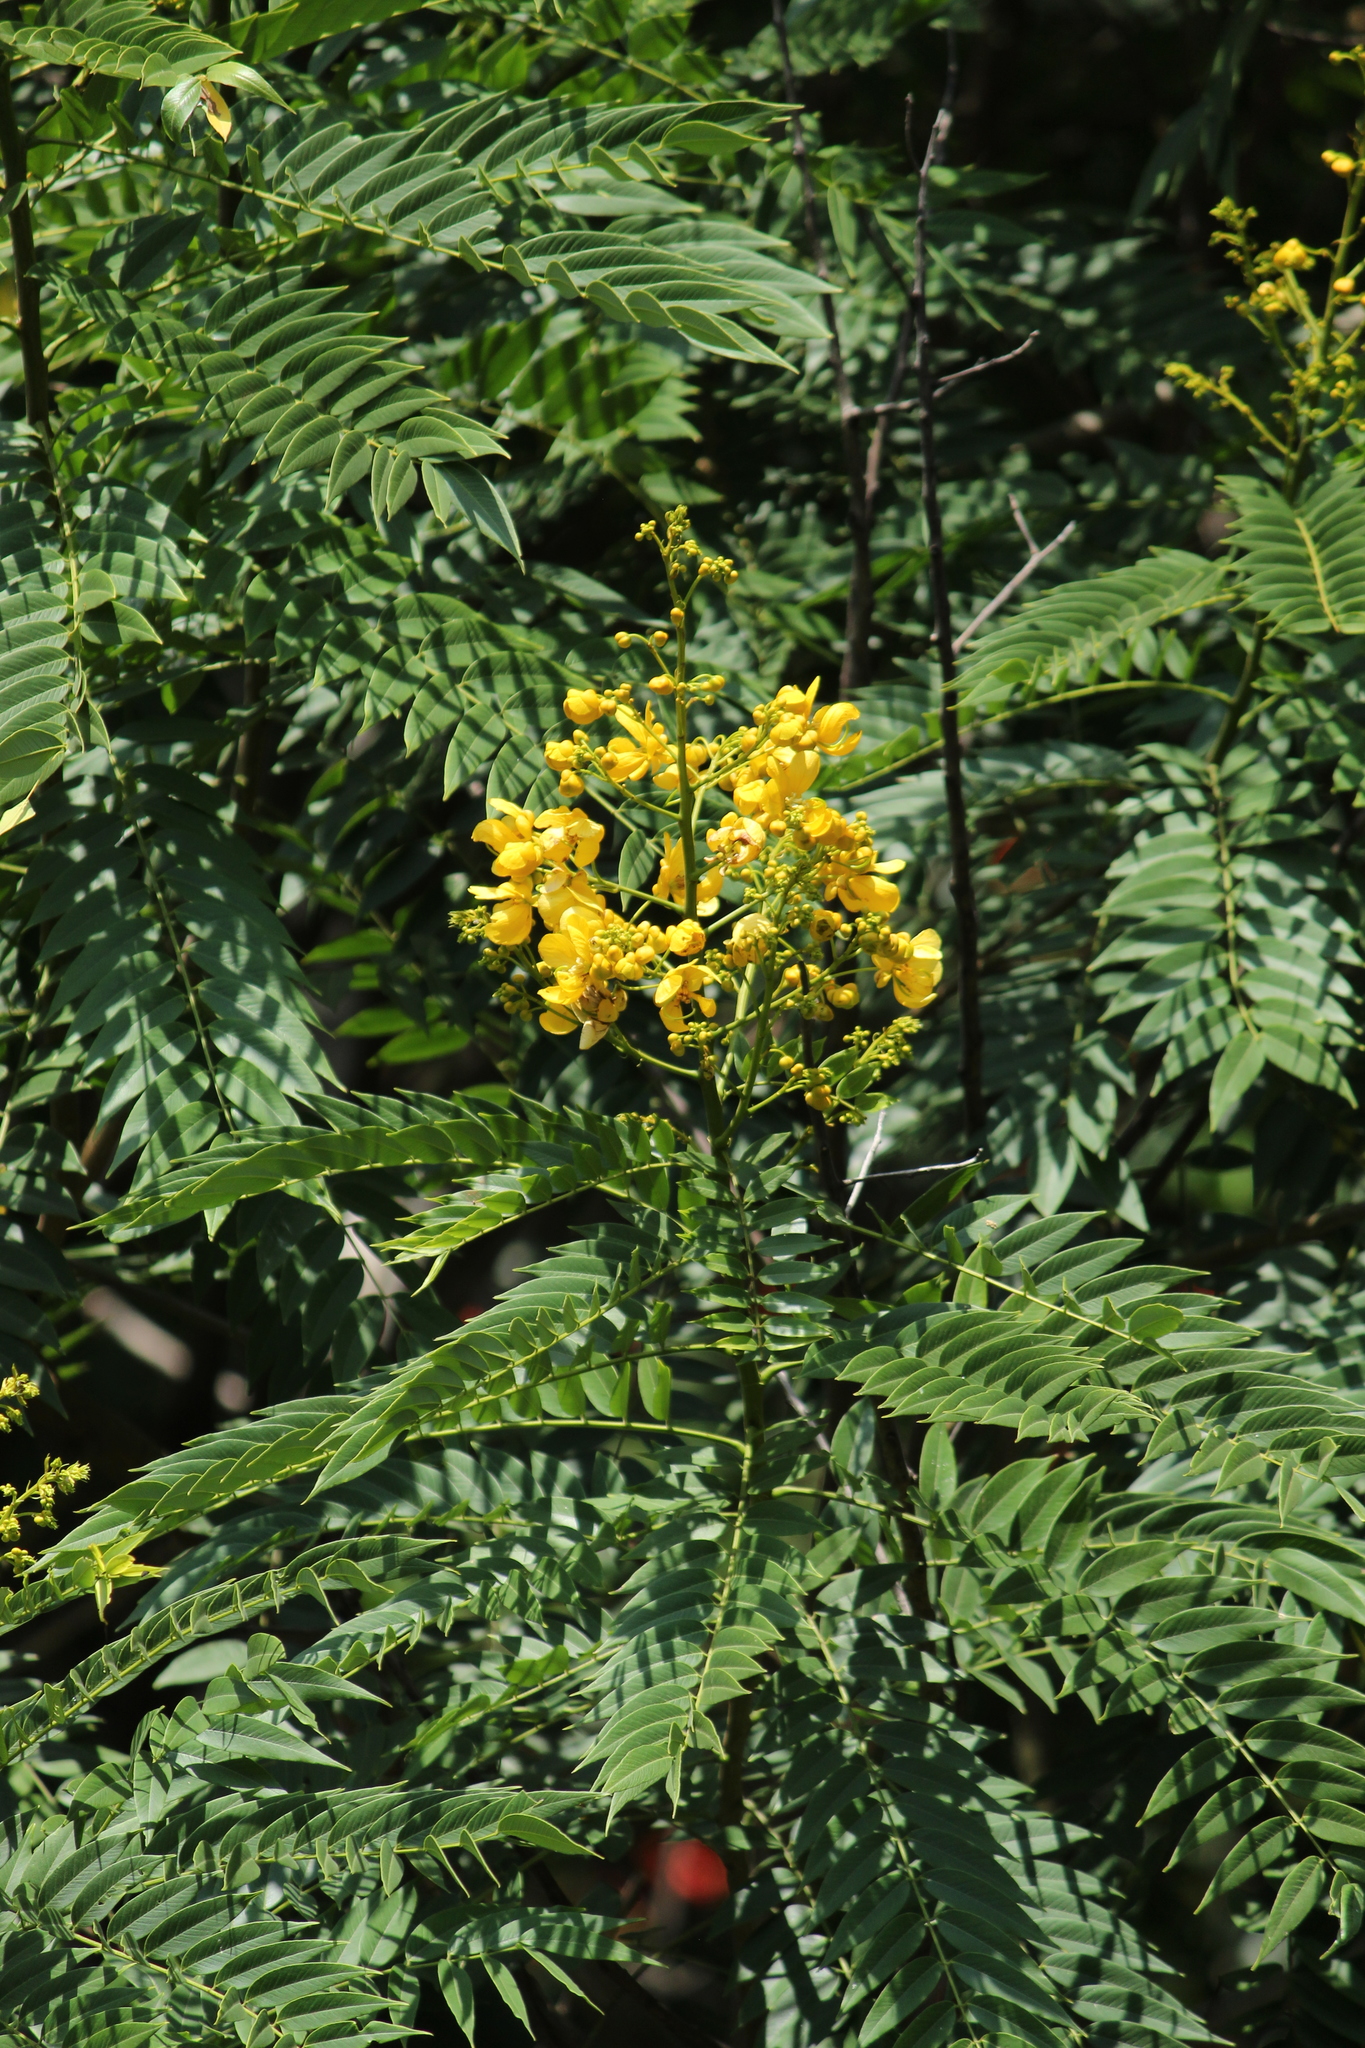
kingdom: Plantae
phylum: Tracheophyta
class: Magnoliopsida
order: Fabales
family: Fabaceae
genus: Senna
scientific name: Senna spectabilis
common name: Casia amarilla
